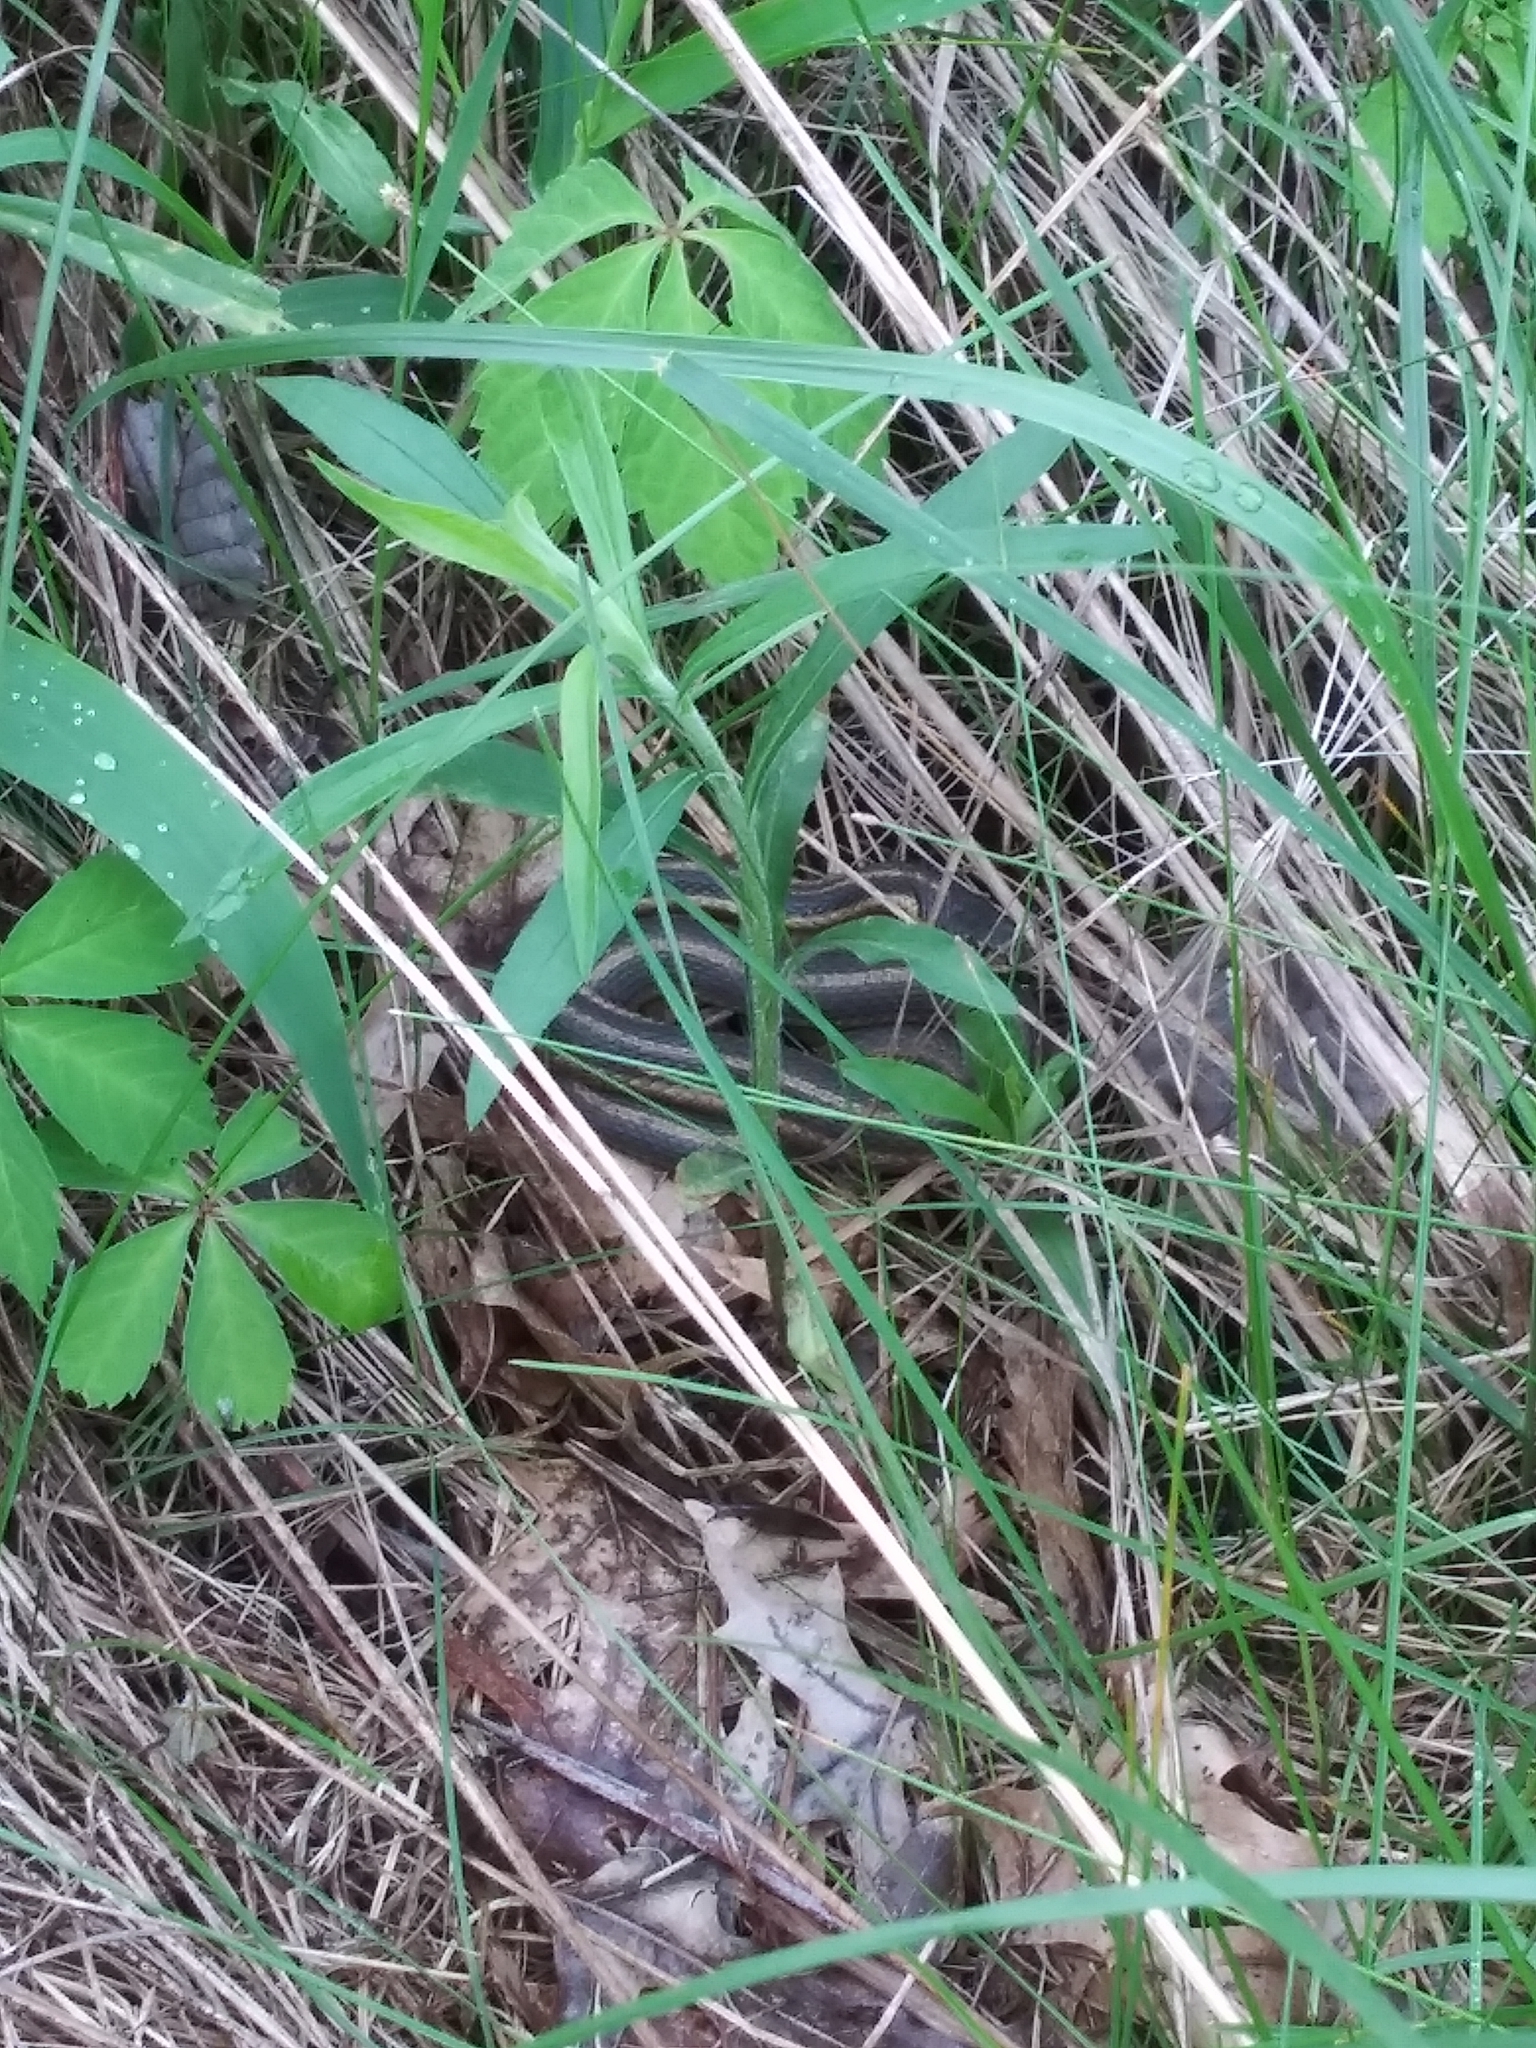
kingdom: Animalia
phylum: Chordata
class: Squamata
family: Colubridae
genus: Thamnophis
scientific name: Thamnophis sirtalis
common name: Common garter snake
